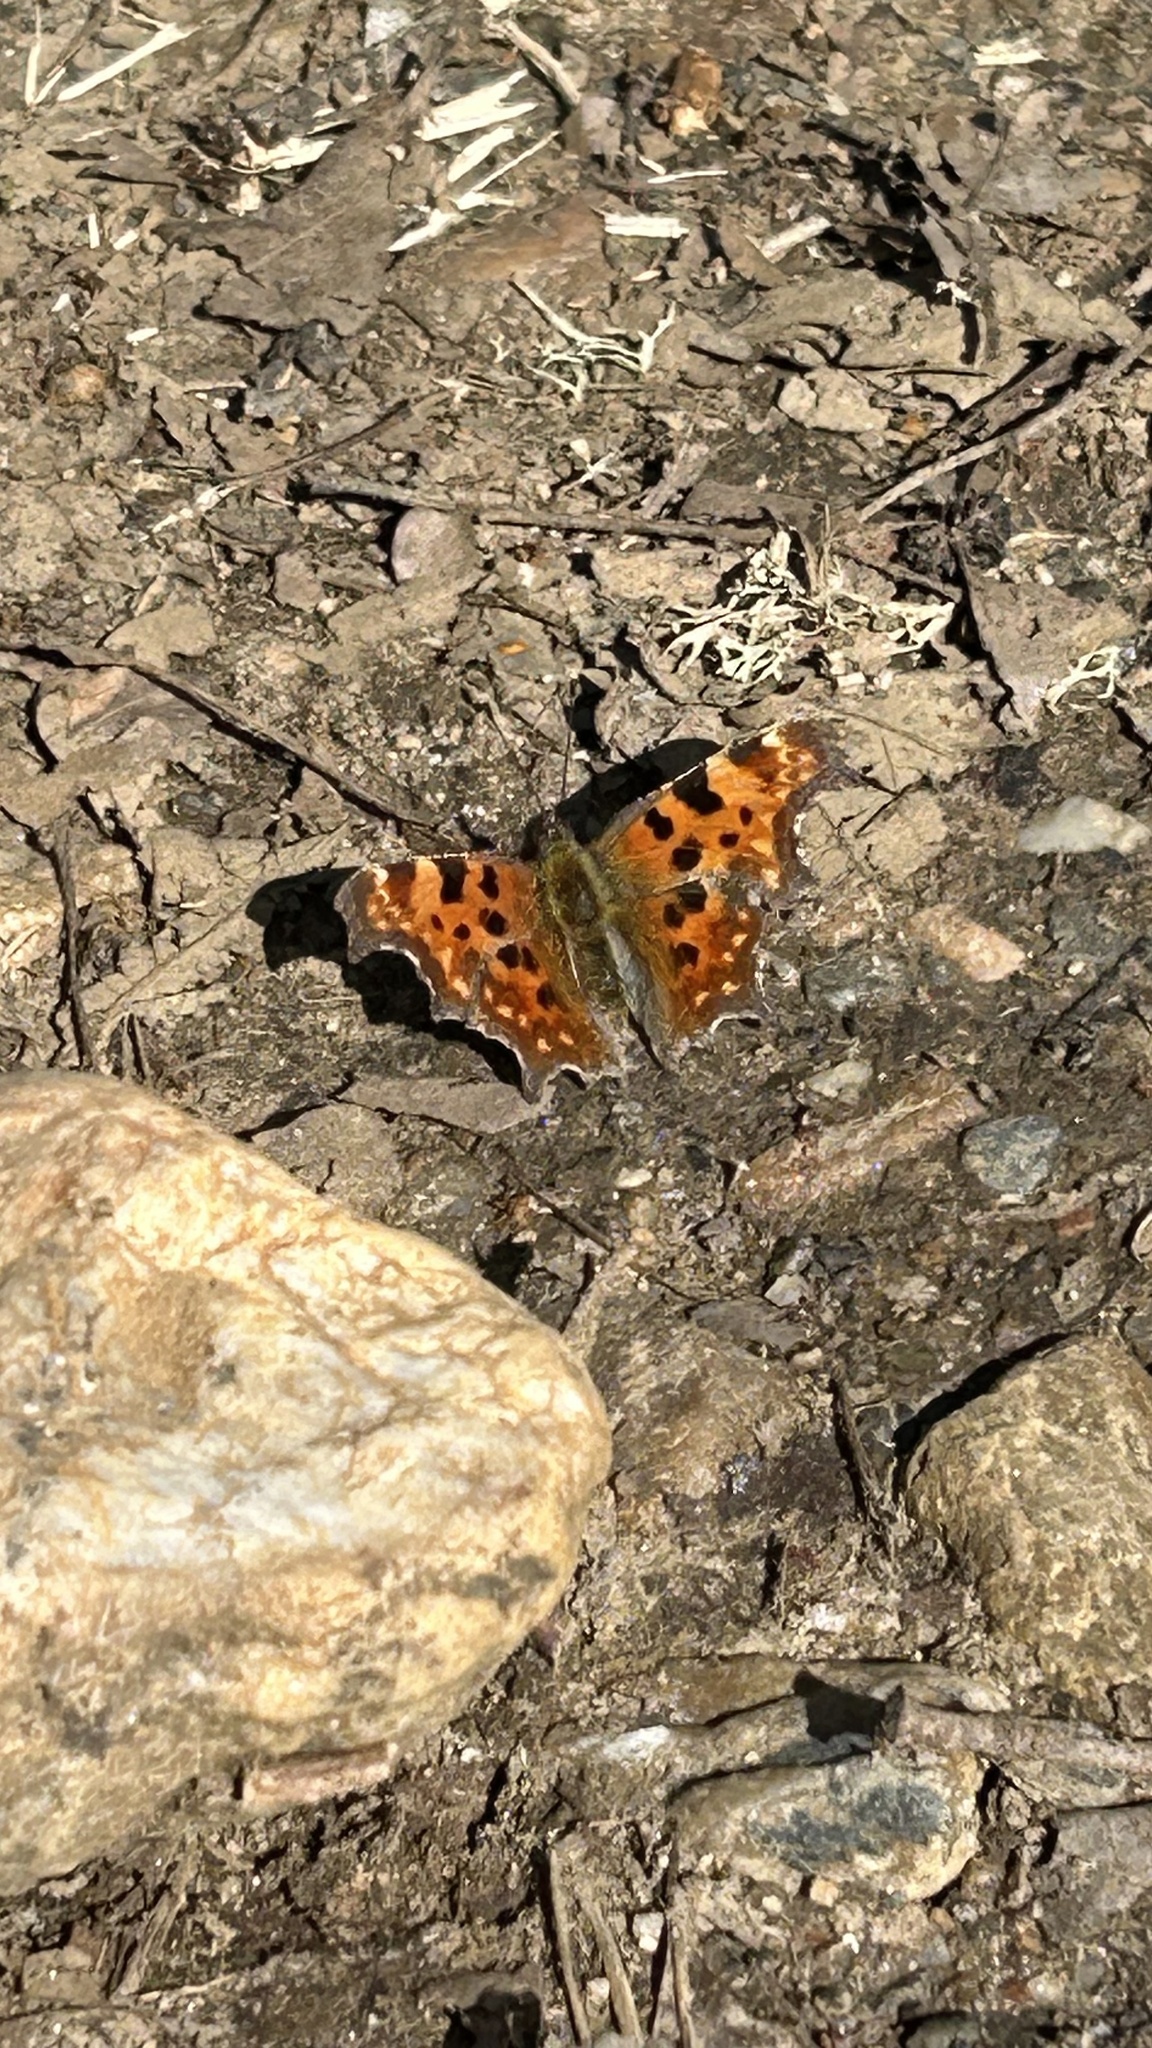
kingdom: Animalia
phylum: Arthropoda
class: Insecta
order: Lepidoptera
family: Nymphalidae
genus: Polygonia
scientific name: Polygonia c-album
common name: Comma
